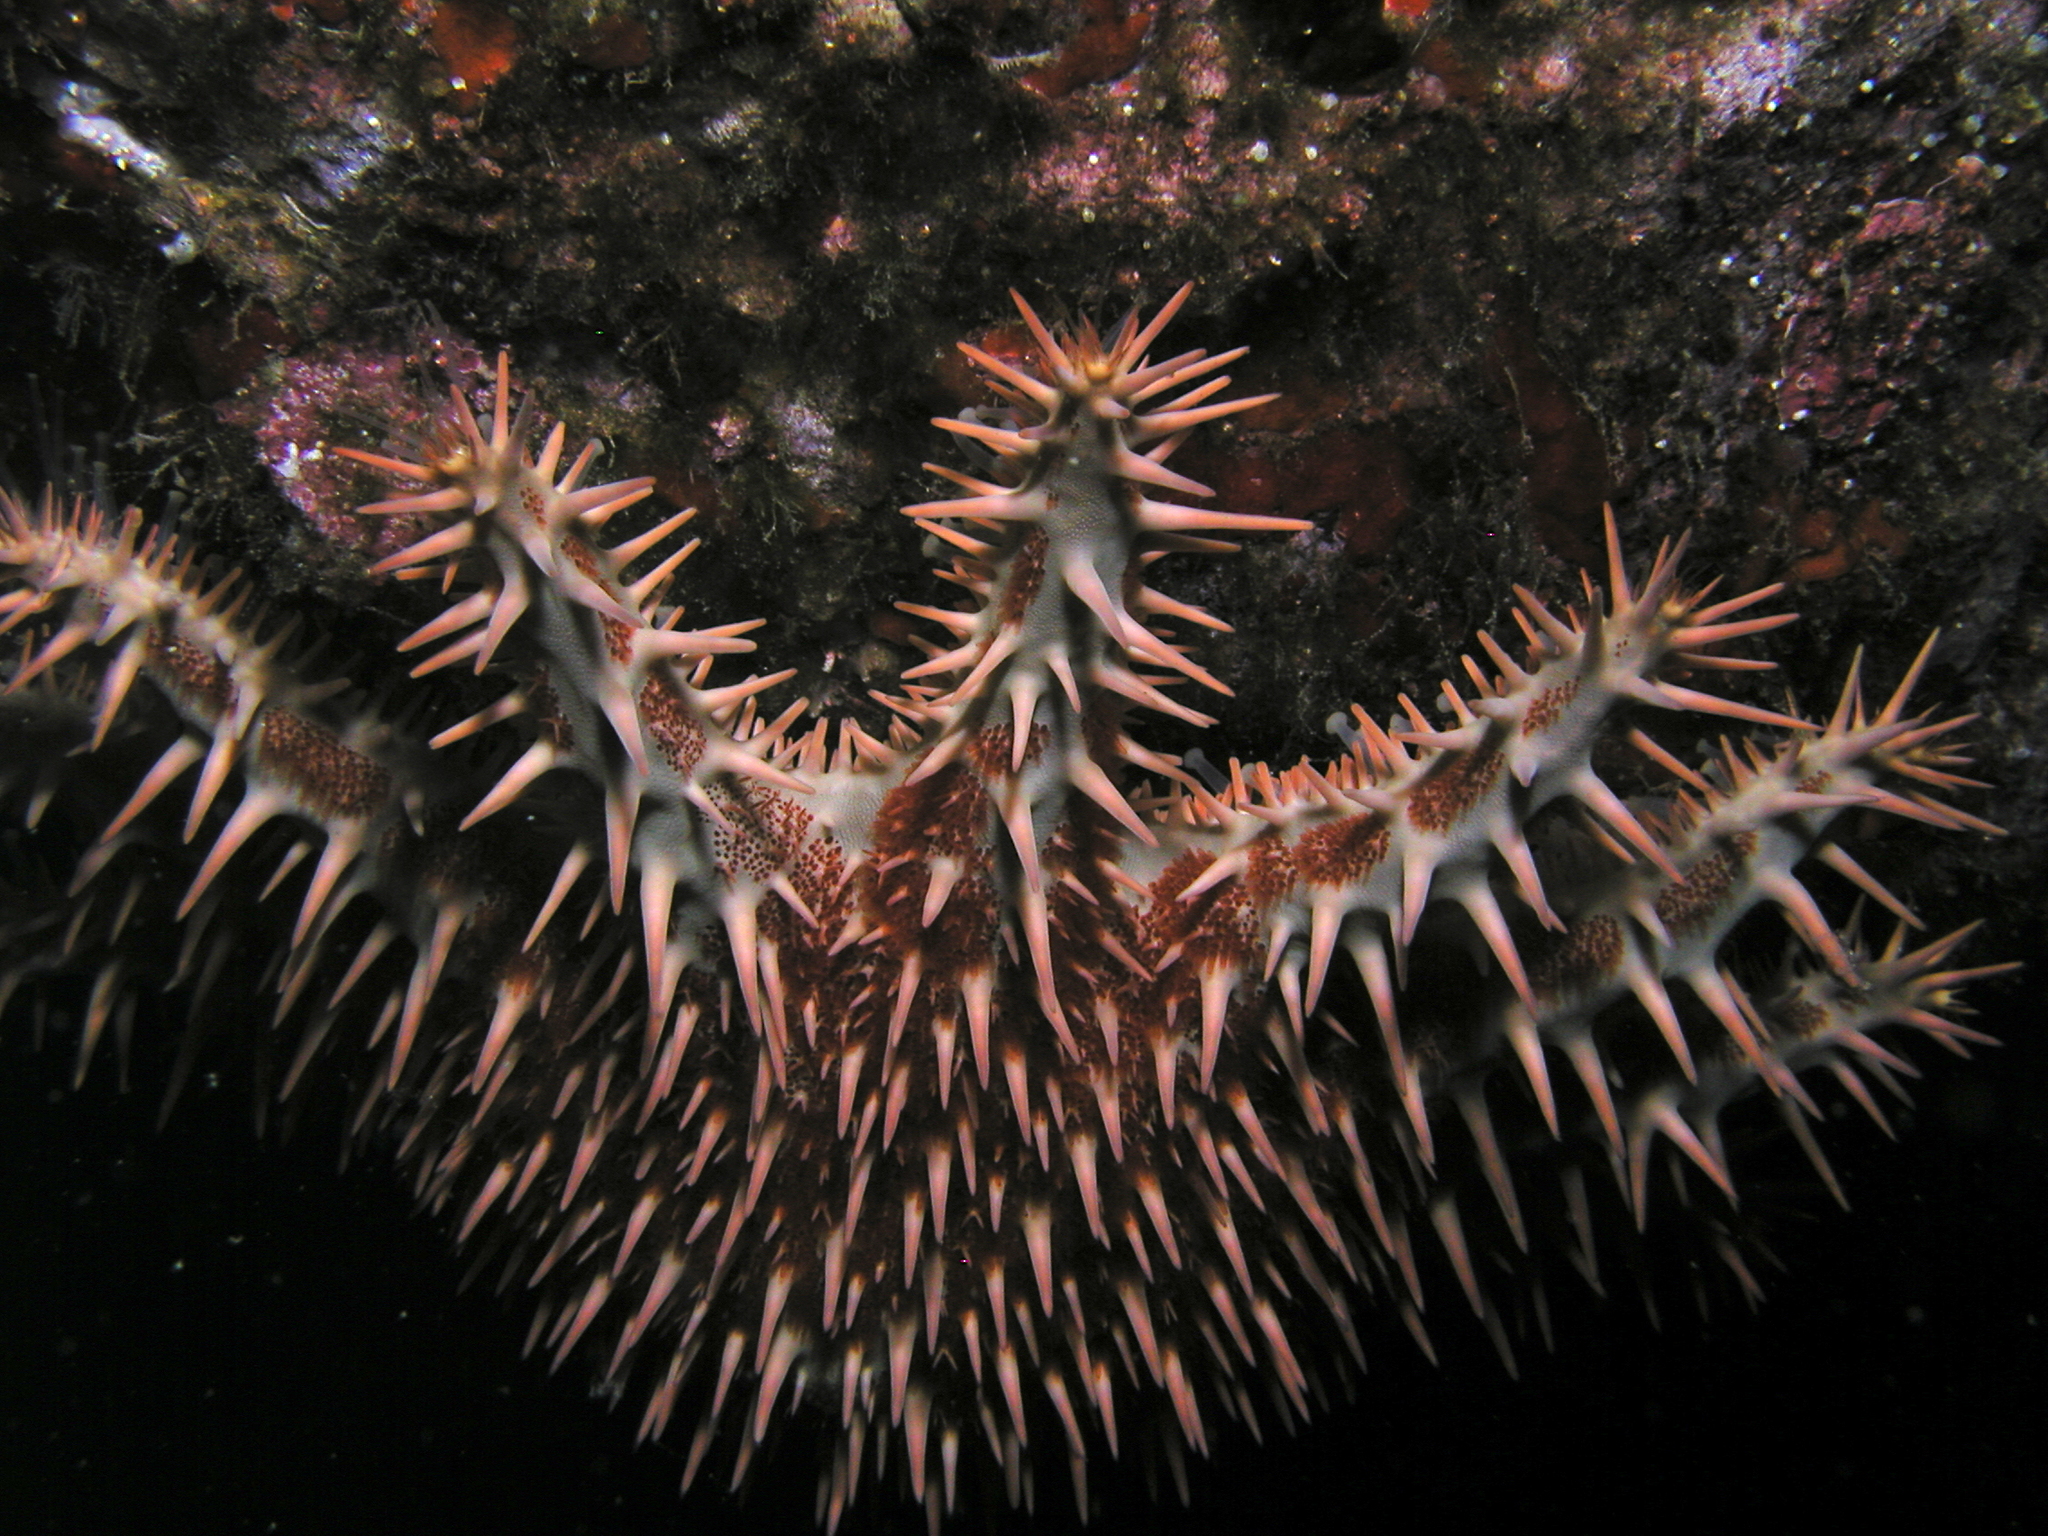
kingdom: Animalia
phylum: Echinodermata
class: Asteroidea
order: Valvatida
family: Acanthasteridae
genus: Acanthaster
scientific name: Acanthaster planci
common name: Crown-of-thorns
